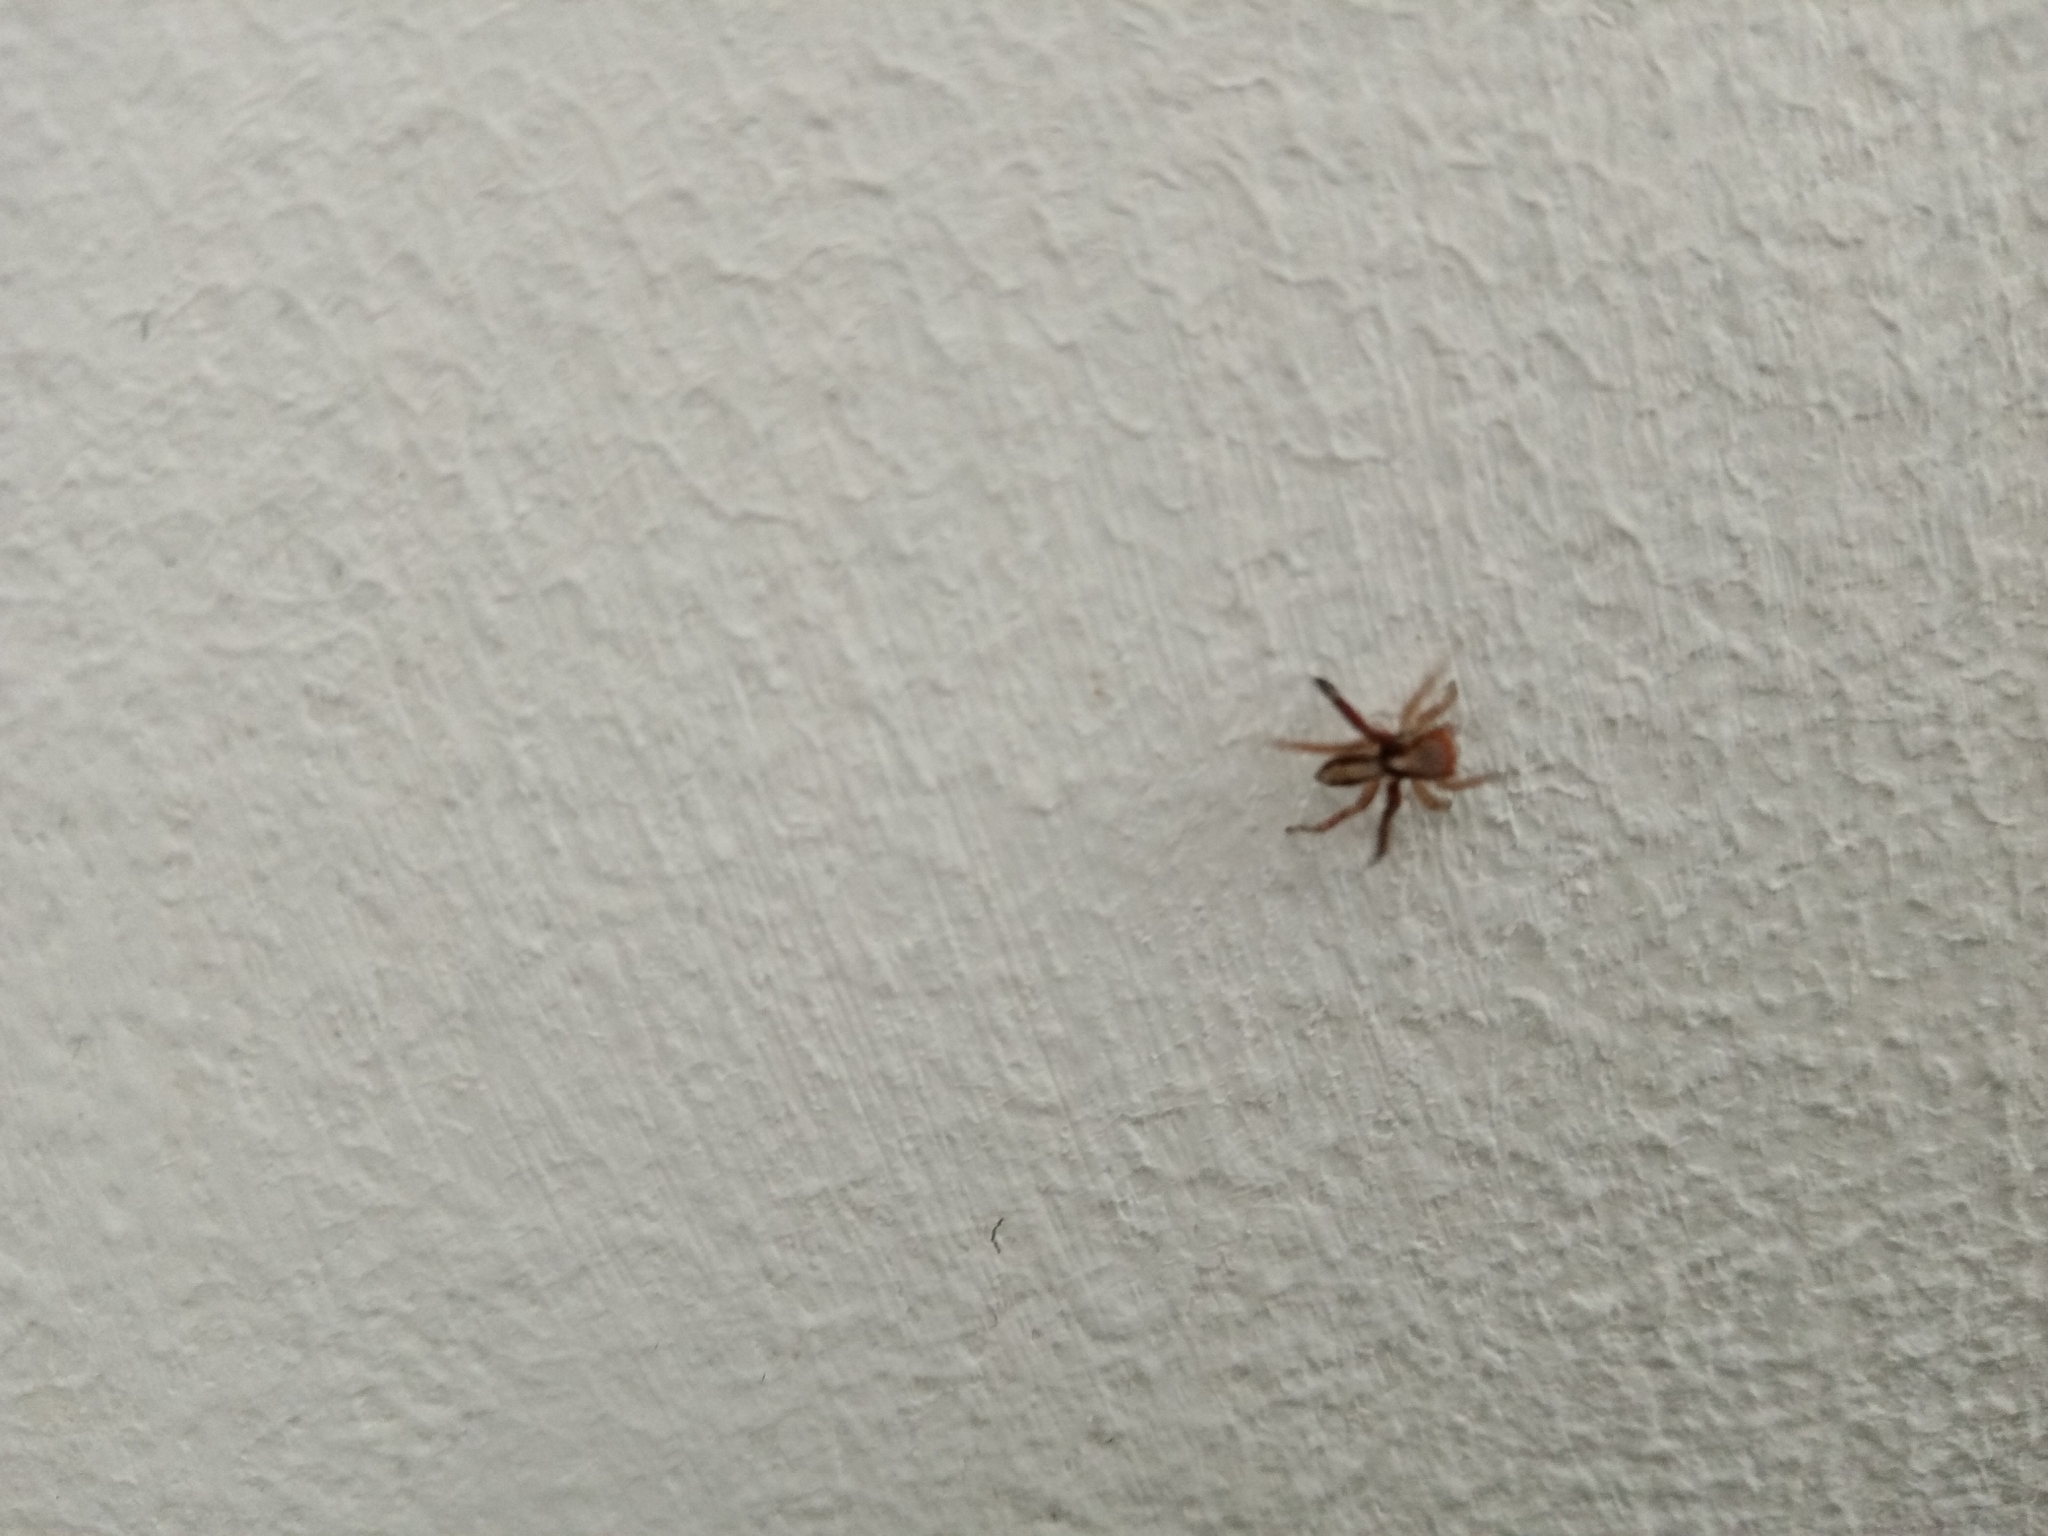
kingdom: Animalia
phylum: Arthropoda
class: Arachnida
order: Araneae
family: Salticidae
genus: Saitis
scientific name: Saitis barbipes
